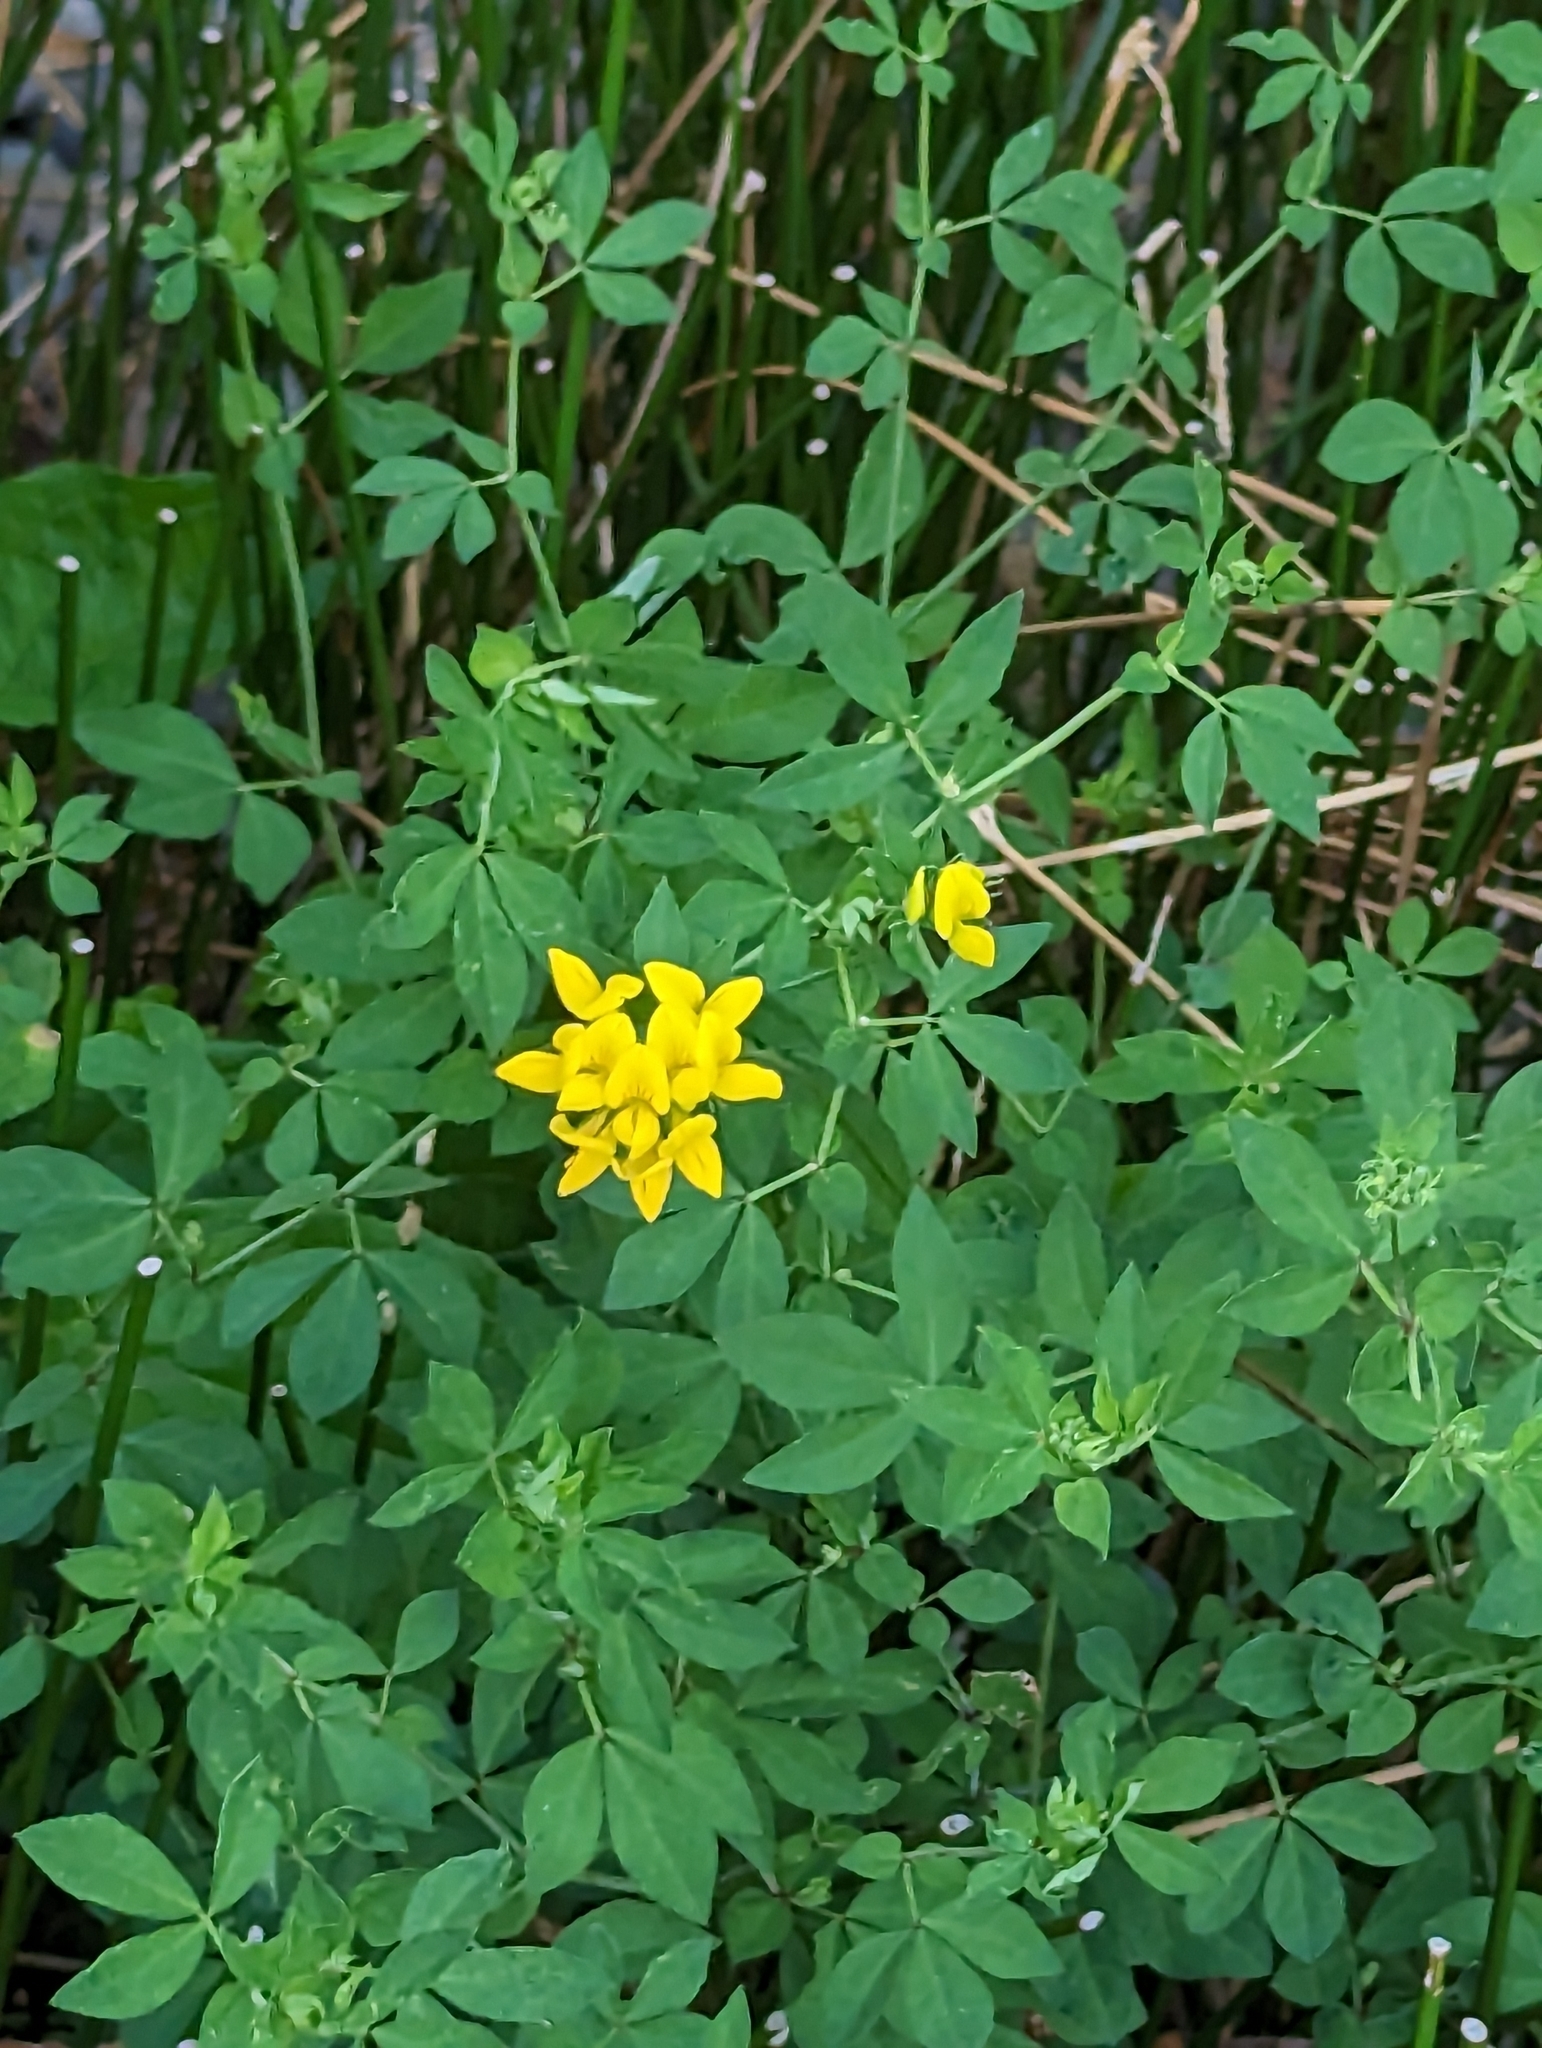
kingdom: Plantae
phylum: Tracheophyta
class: Magnoliopsida
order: Fabales
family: Fabaceae
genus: Lotus
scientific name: Lotus pedunculatus
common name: Greater birdsfoot-trefoil
